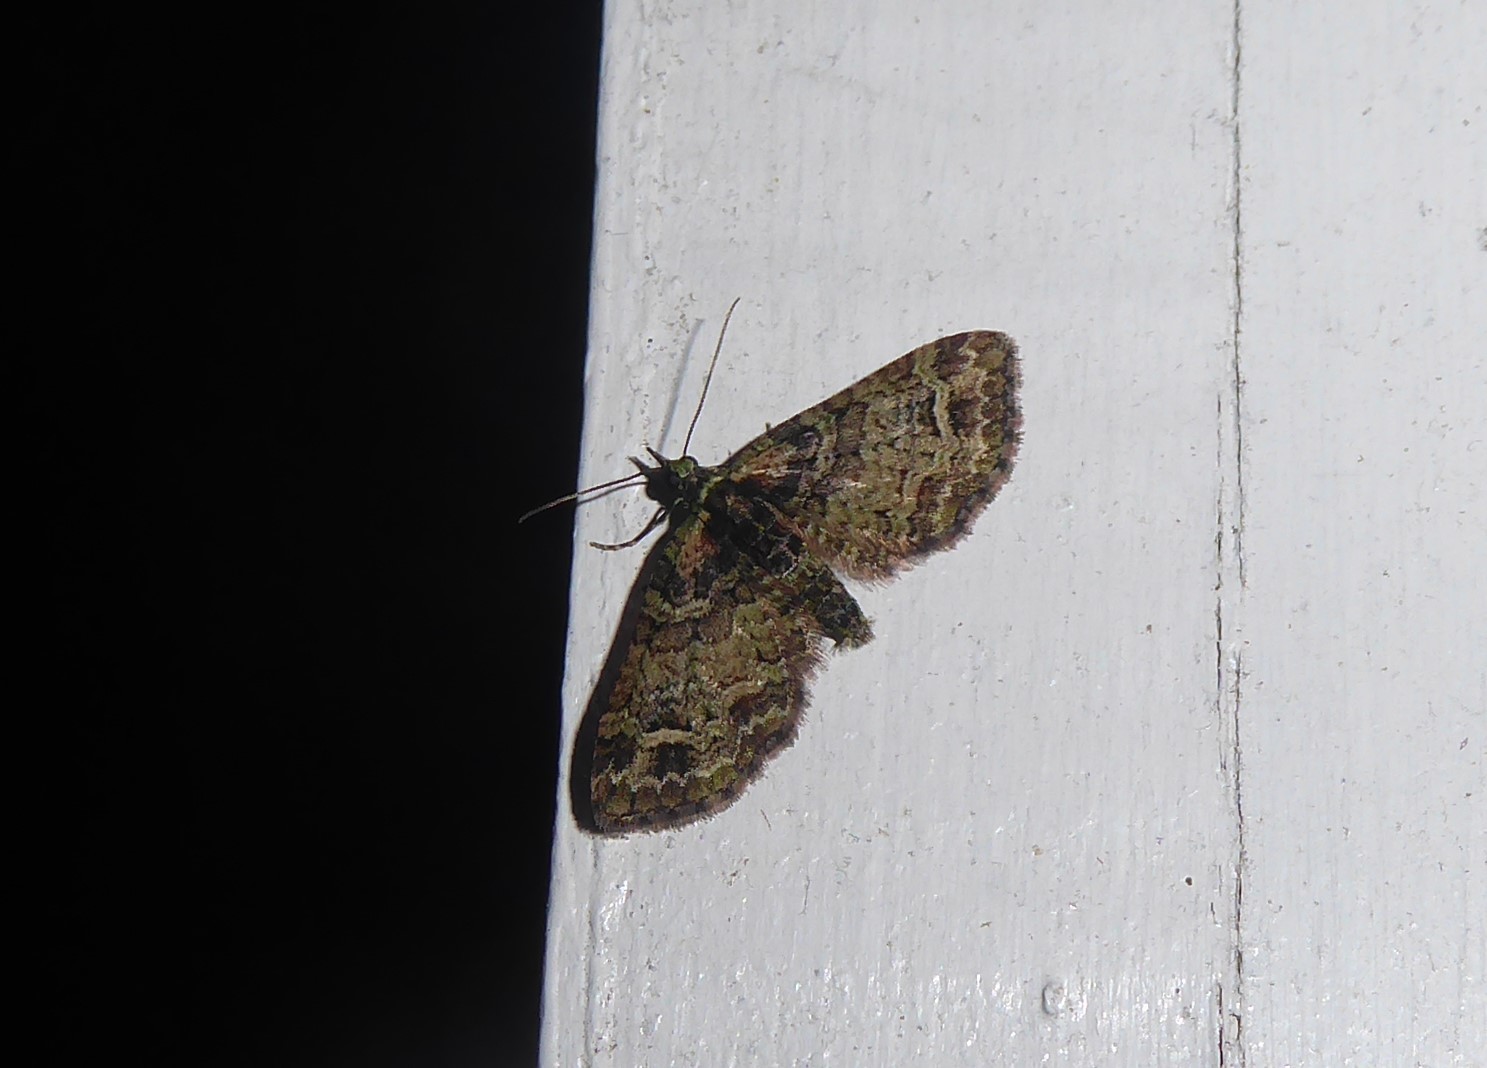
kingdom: Animalia
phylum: Arthropoda
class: Insecta
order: Lepidoptera
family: Geometridae
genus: Idaea
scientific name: Idaea mutanda
